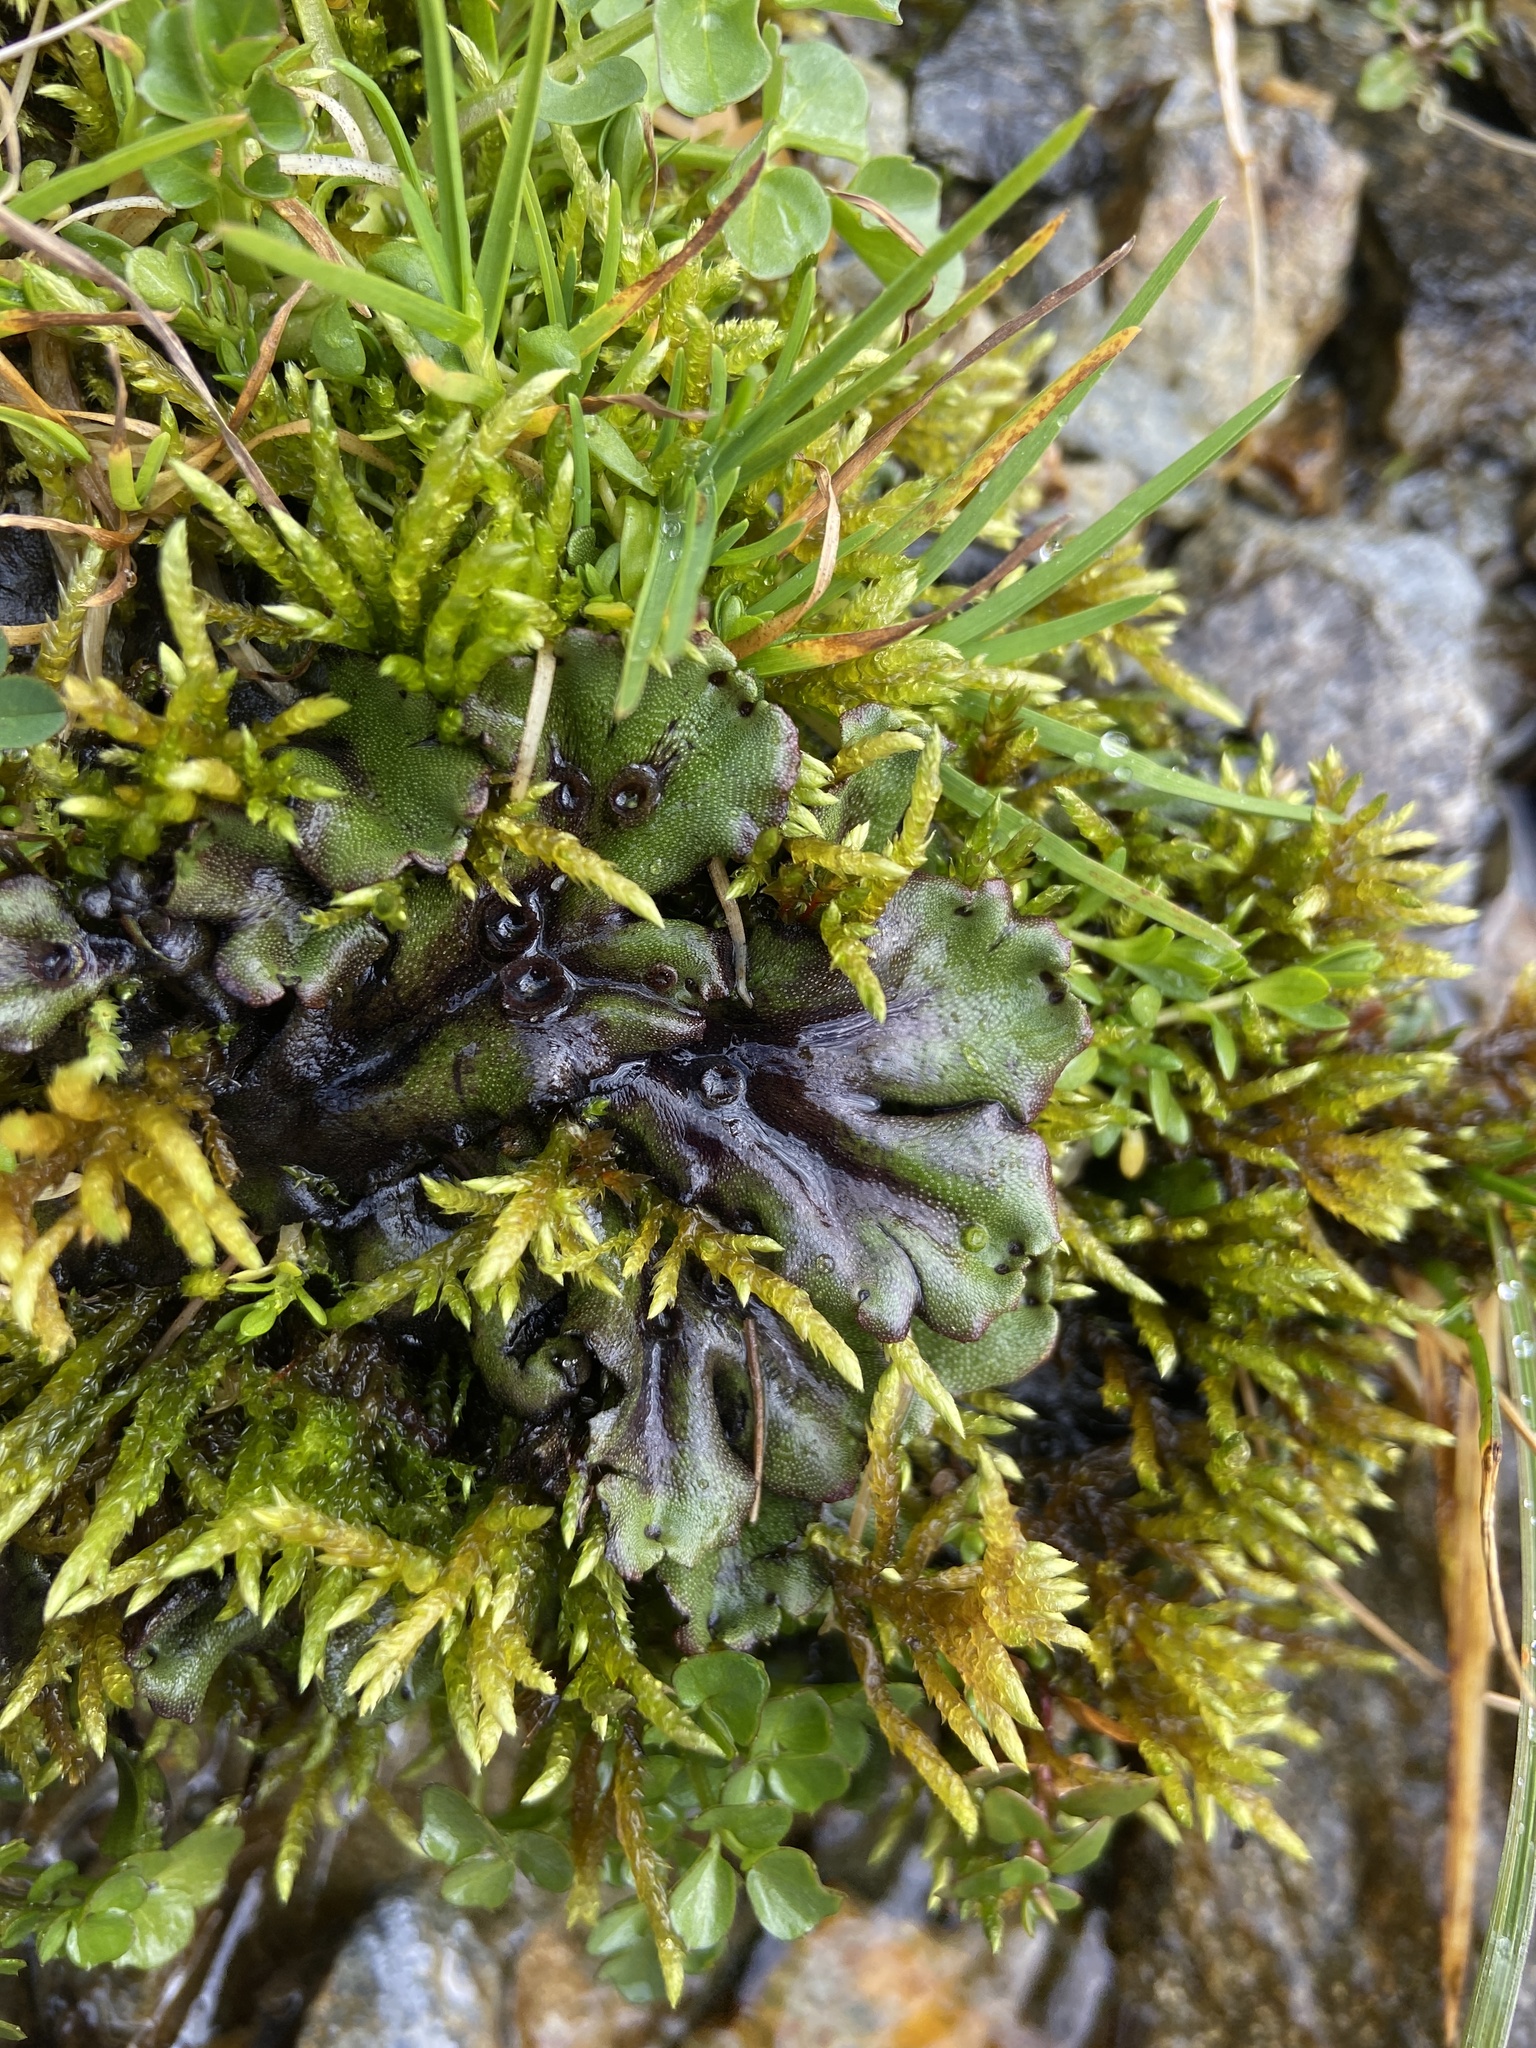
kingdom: Plantae
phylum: Marchantiophyta
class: Marchantiopsida
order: Marchantiales
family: Marchantiaceae
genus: Marchantia
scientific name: Marchantia polymorpha
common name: Common liverwort
